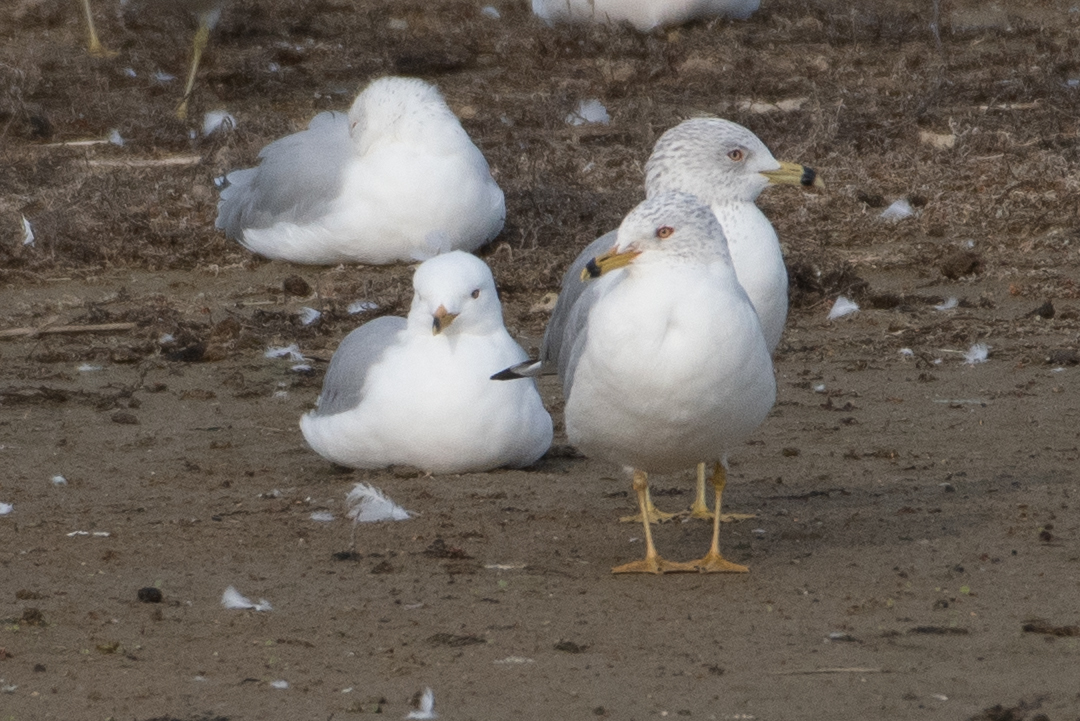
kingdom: Animalia
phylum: Chordata
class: Aves
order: Charadriiformes
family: Laridae
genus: Larus
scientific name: Larus delawarensis
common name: Ring-billed gull
